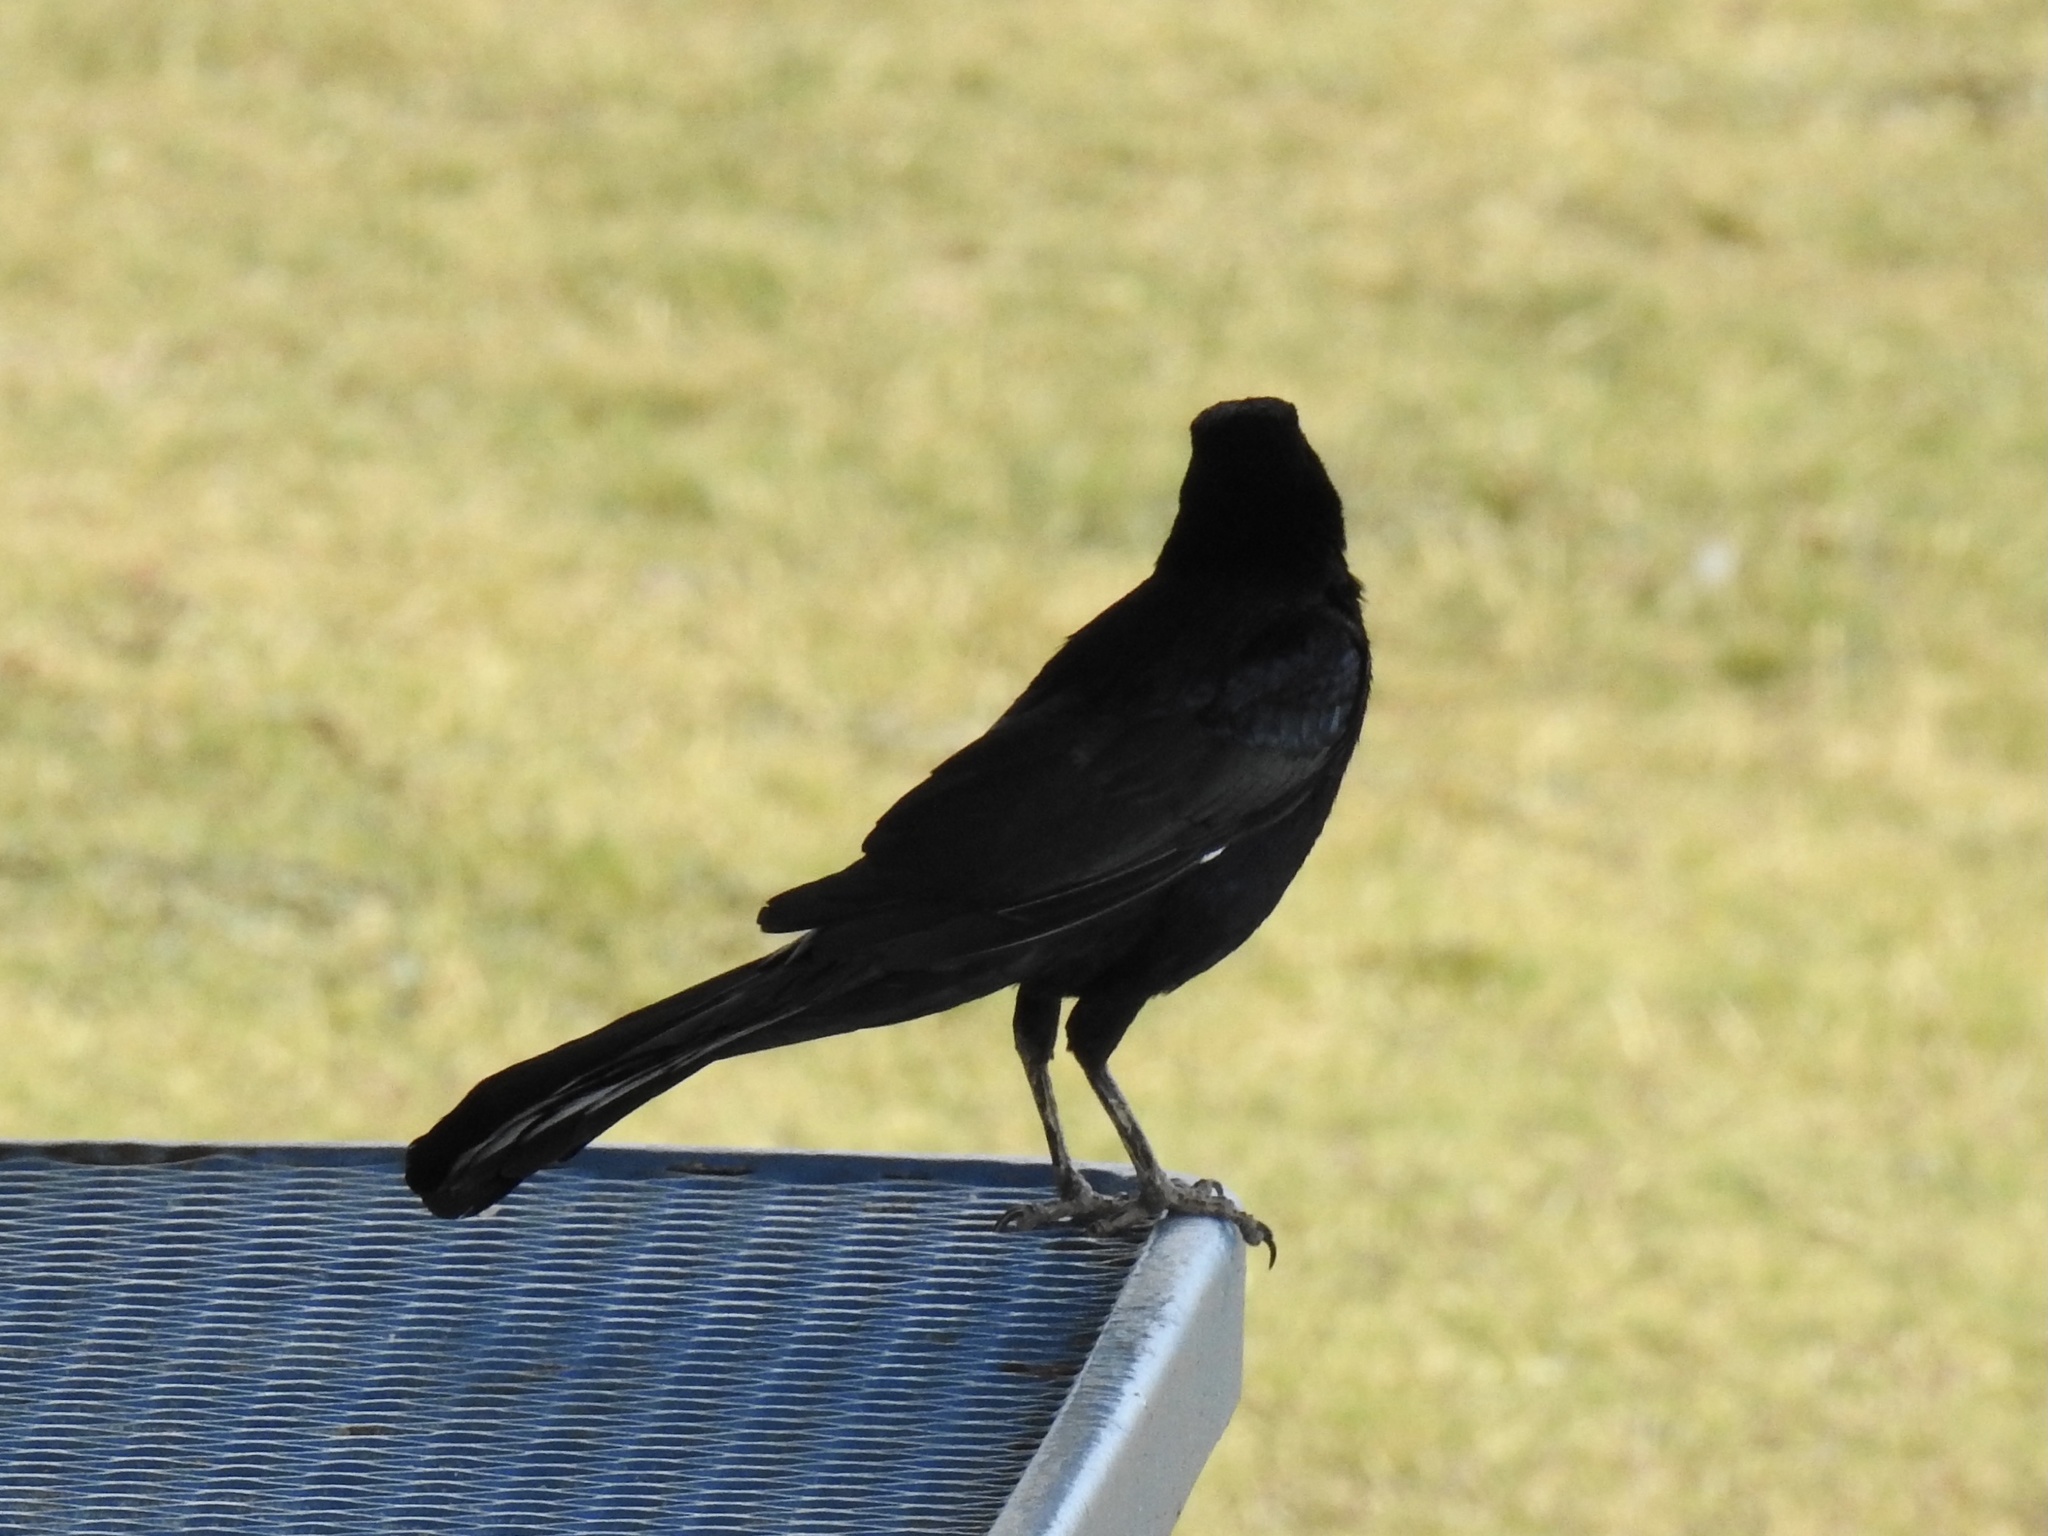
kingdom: Animalia
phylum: Chordata
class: Aves
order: Passeriformes
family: Icteridae
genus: Quiscalus
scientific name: Quiscalus mexicanus
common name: Great-tailed grackle
